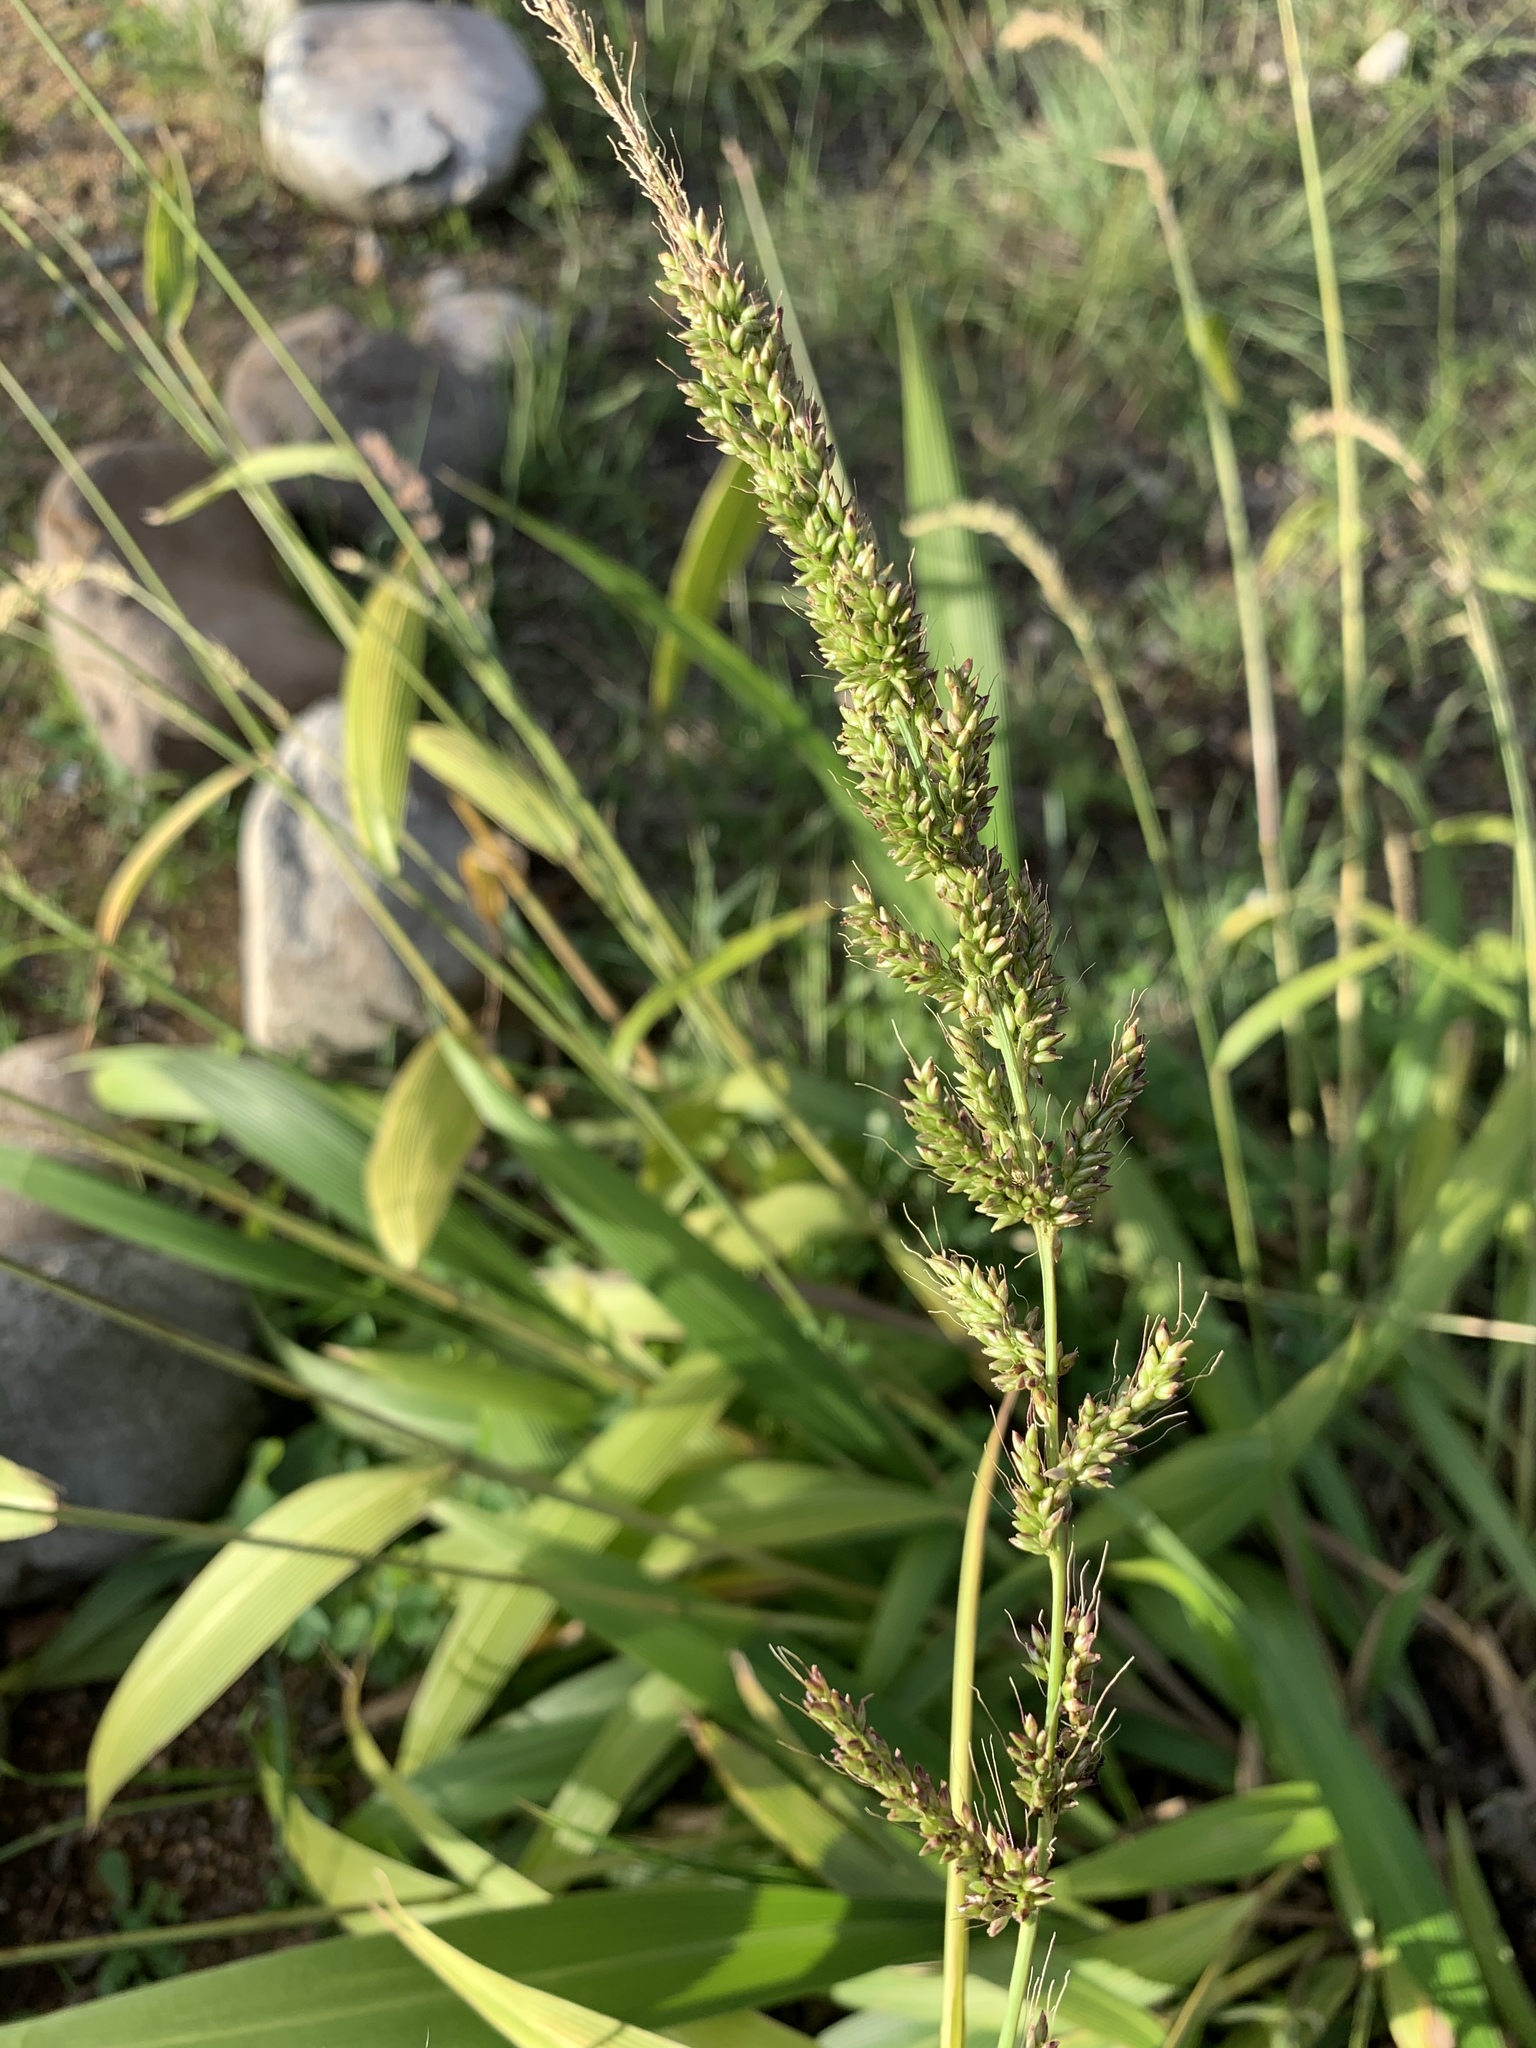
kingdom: Plantae
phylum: Tracheophyta
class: Liliopsida
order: Poales
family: Poaceae
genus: Setaria
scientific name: Setaria megaphylla
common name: Bigleaf bristlegrass
